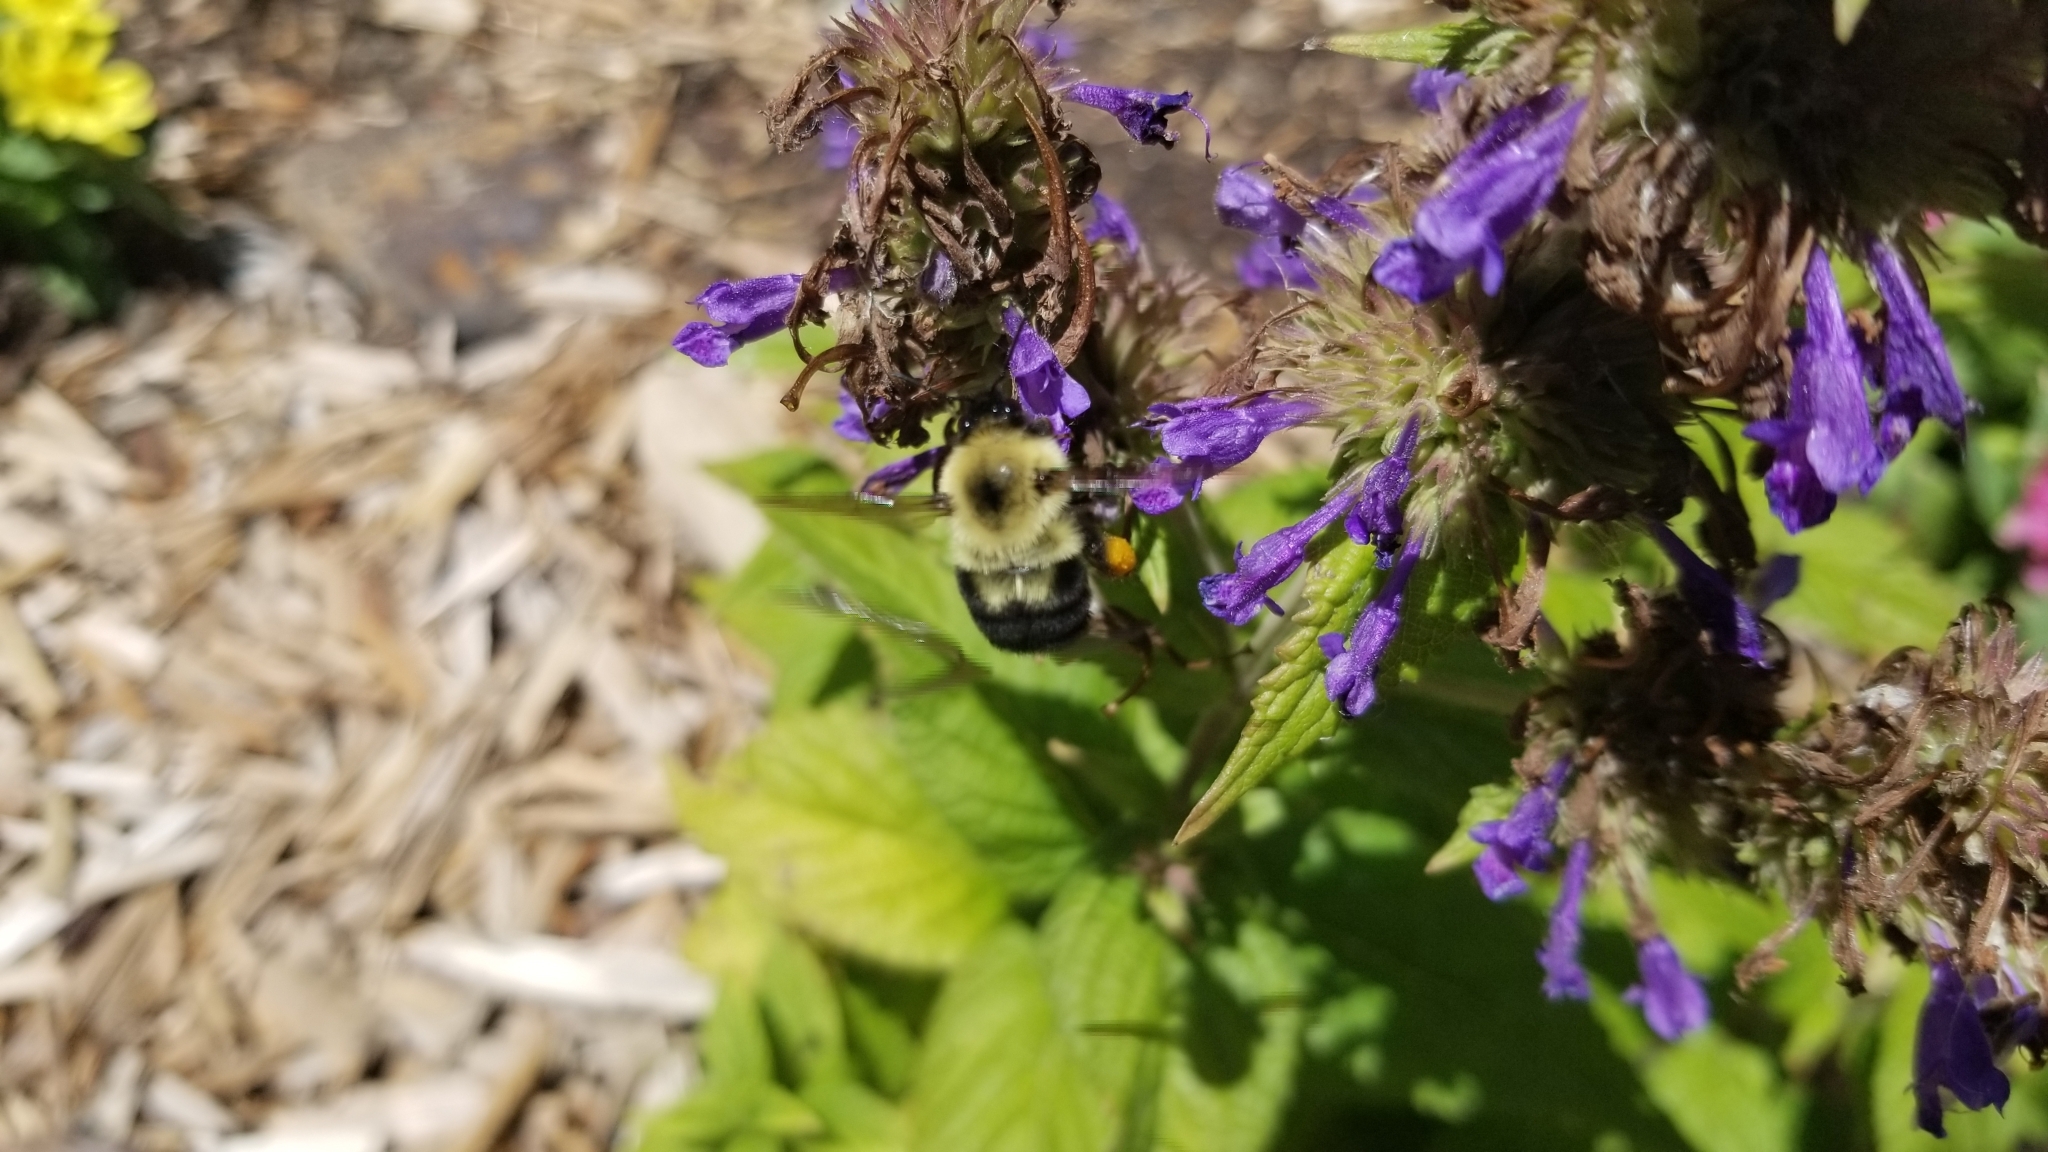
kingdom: Animalia
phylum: Arthropoda
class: Insecta
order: Hymenoptera
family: Apidae
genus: Bombus
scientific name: Bombus bimaculatus
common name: Two-spotted bumble bee
